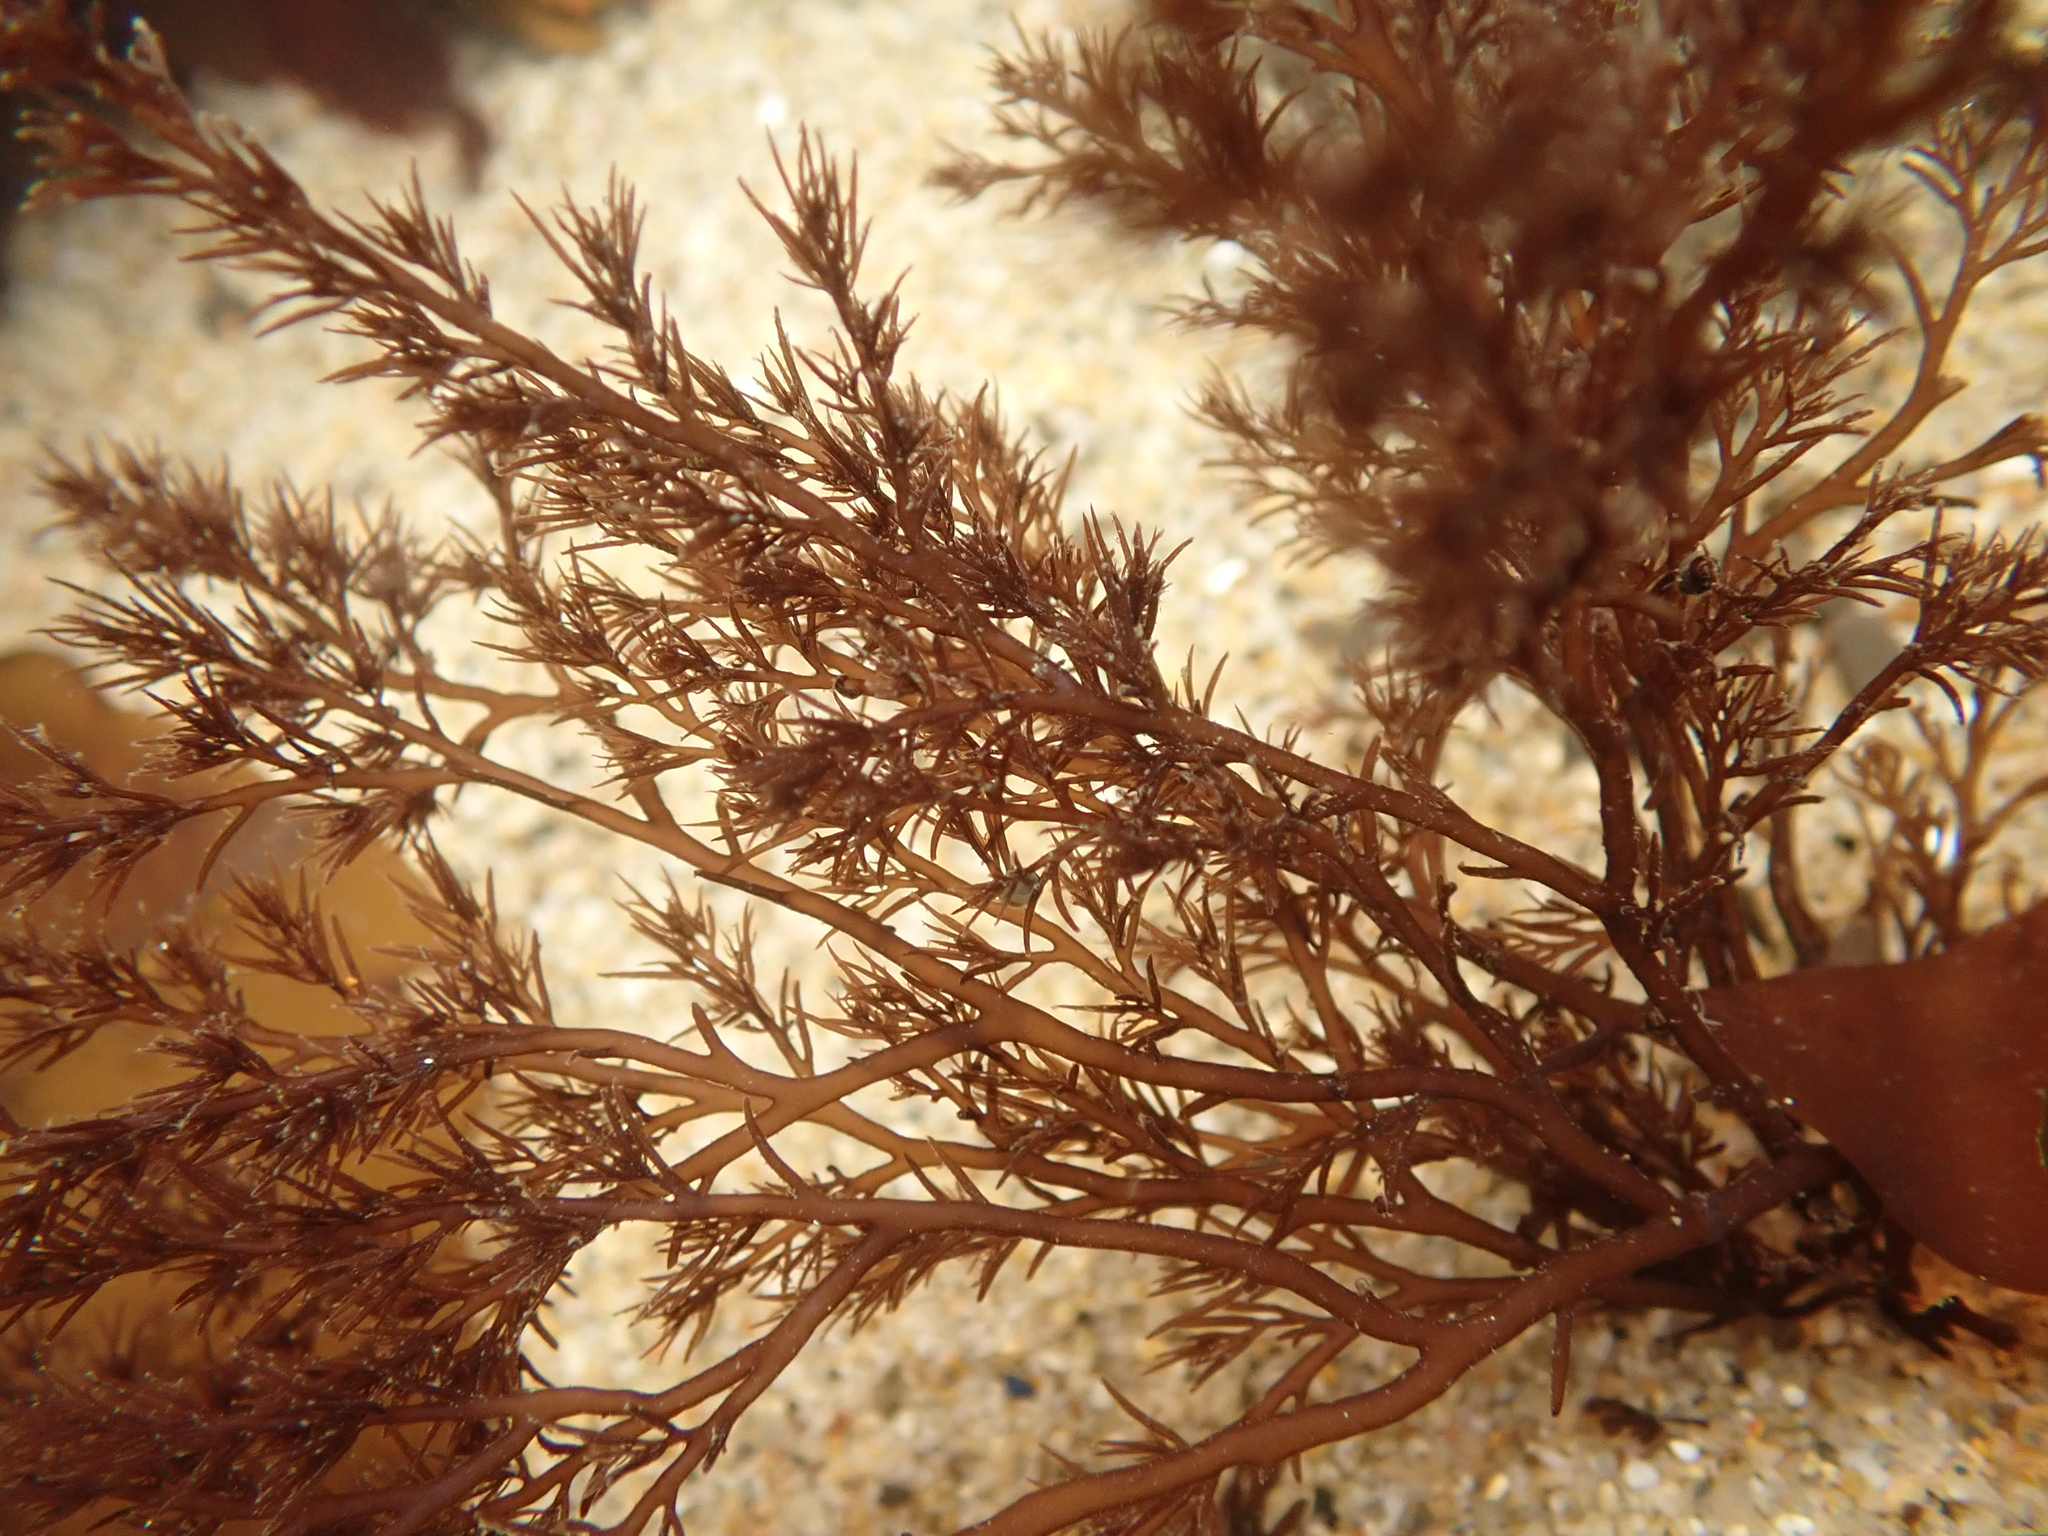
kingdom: Plantae
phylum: Rhodophyta
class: Florideophyceae
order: Ceramiales
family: Rhodomelaceae
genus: Odonthalia
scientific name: Odonthalia floccosa
